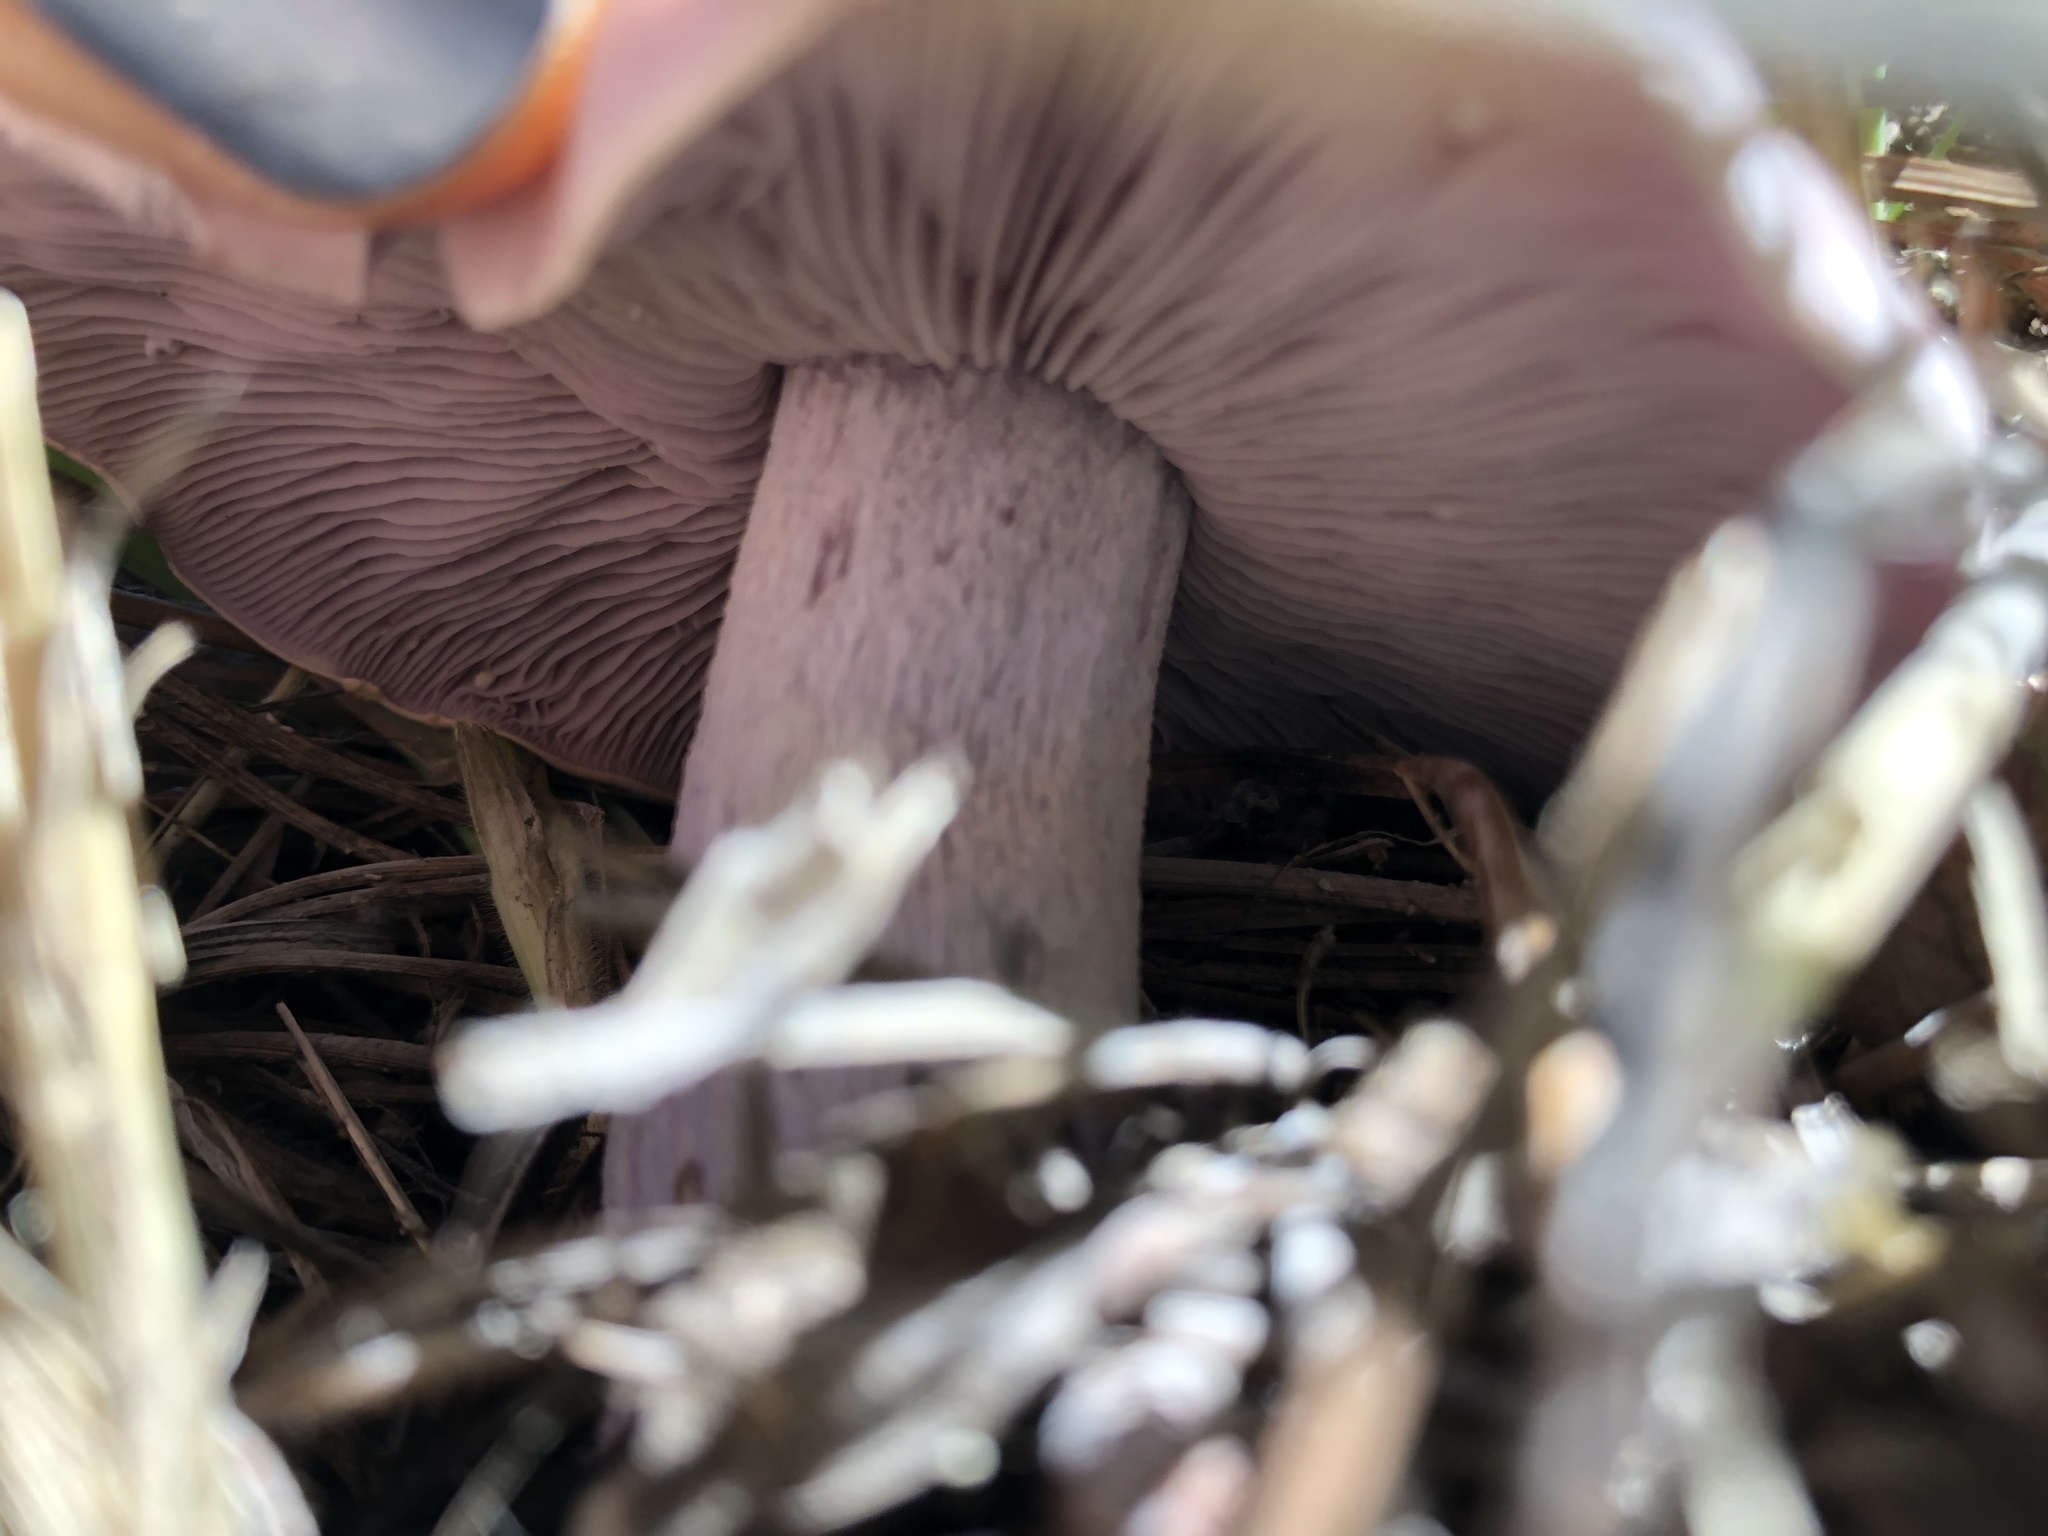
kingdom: Fungi
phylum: Basidiomycota
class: Agaricomycetes
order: Agaricales
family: Tricholomataceae
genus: Collybia
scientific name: Collybia
